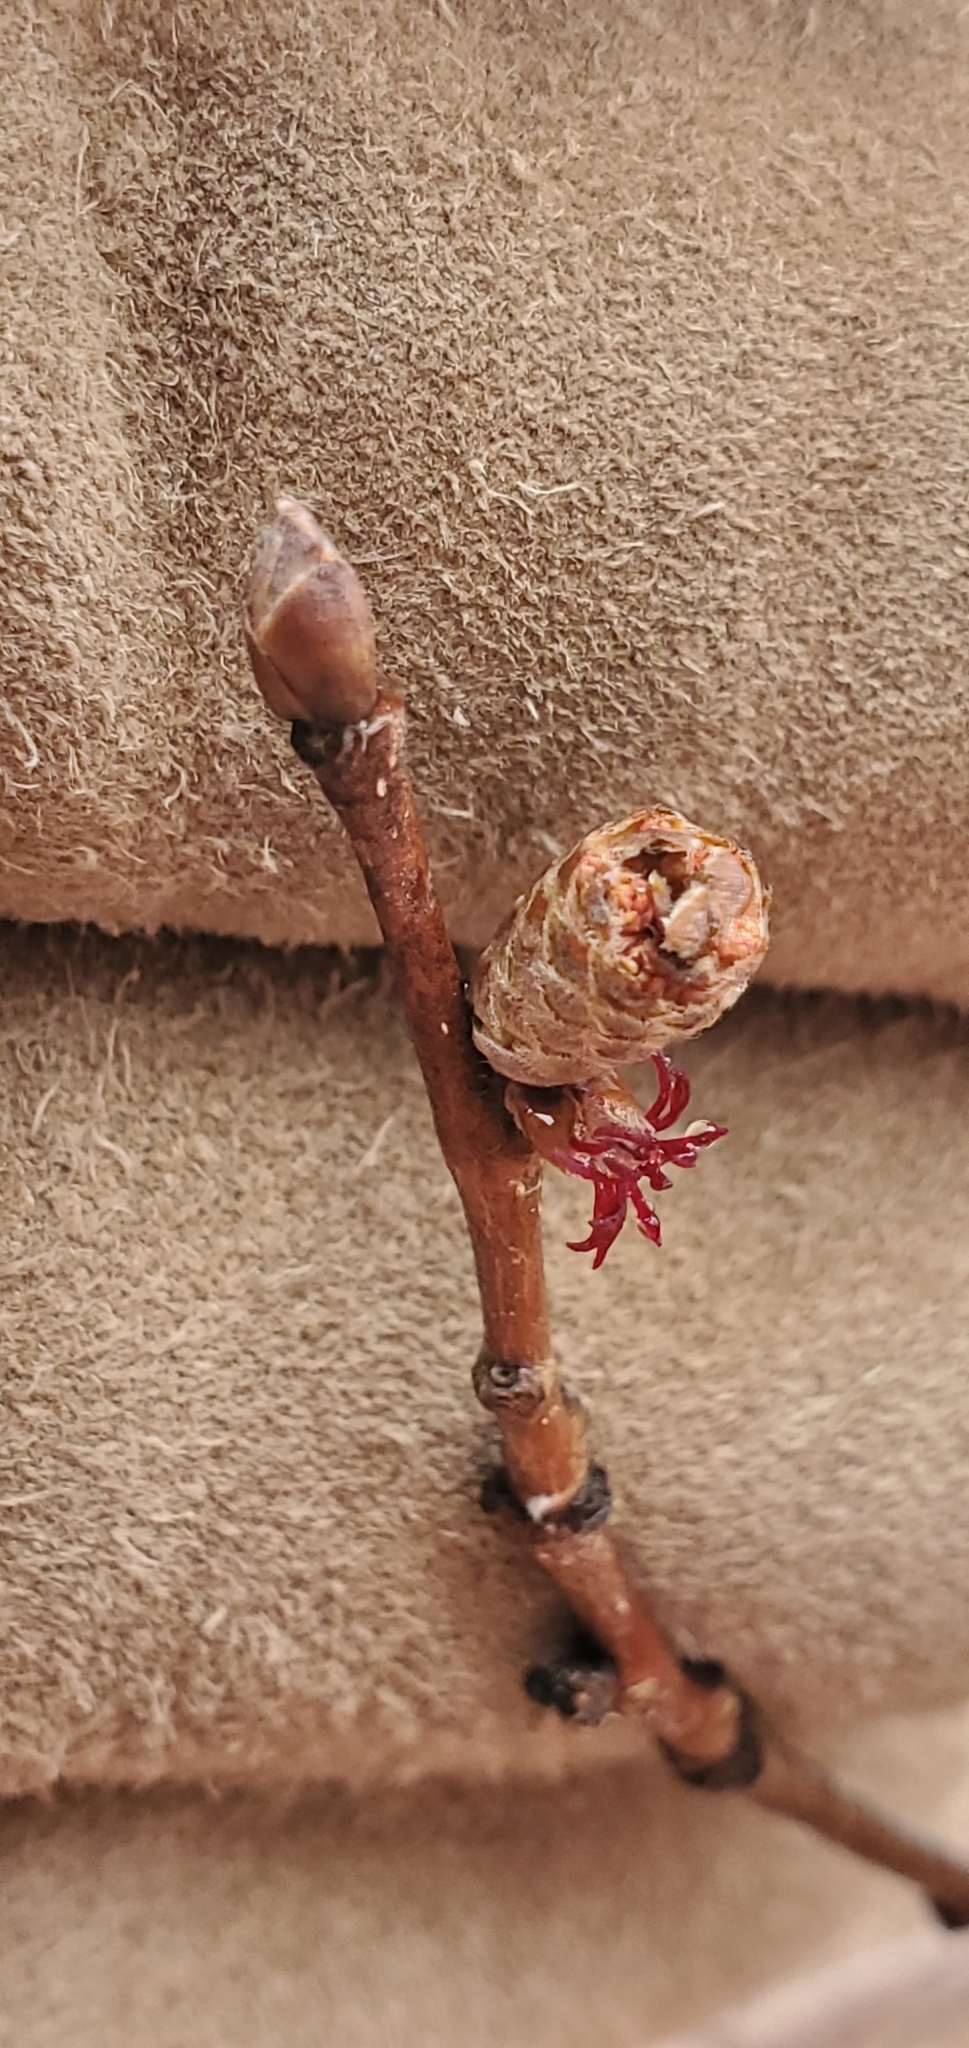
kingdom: Plantae
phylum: Tracheophyta
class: Magnoliopsida
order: Fagales
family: Betulaceae
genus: Corylus
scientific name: Corylus cornuta
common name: Beaked hazel
